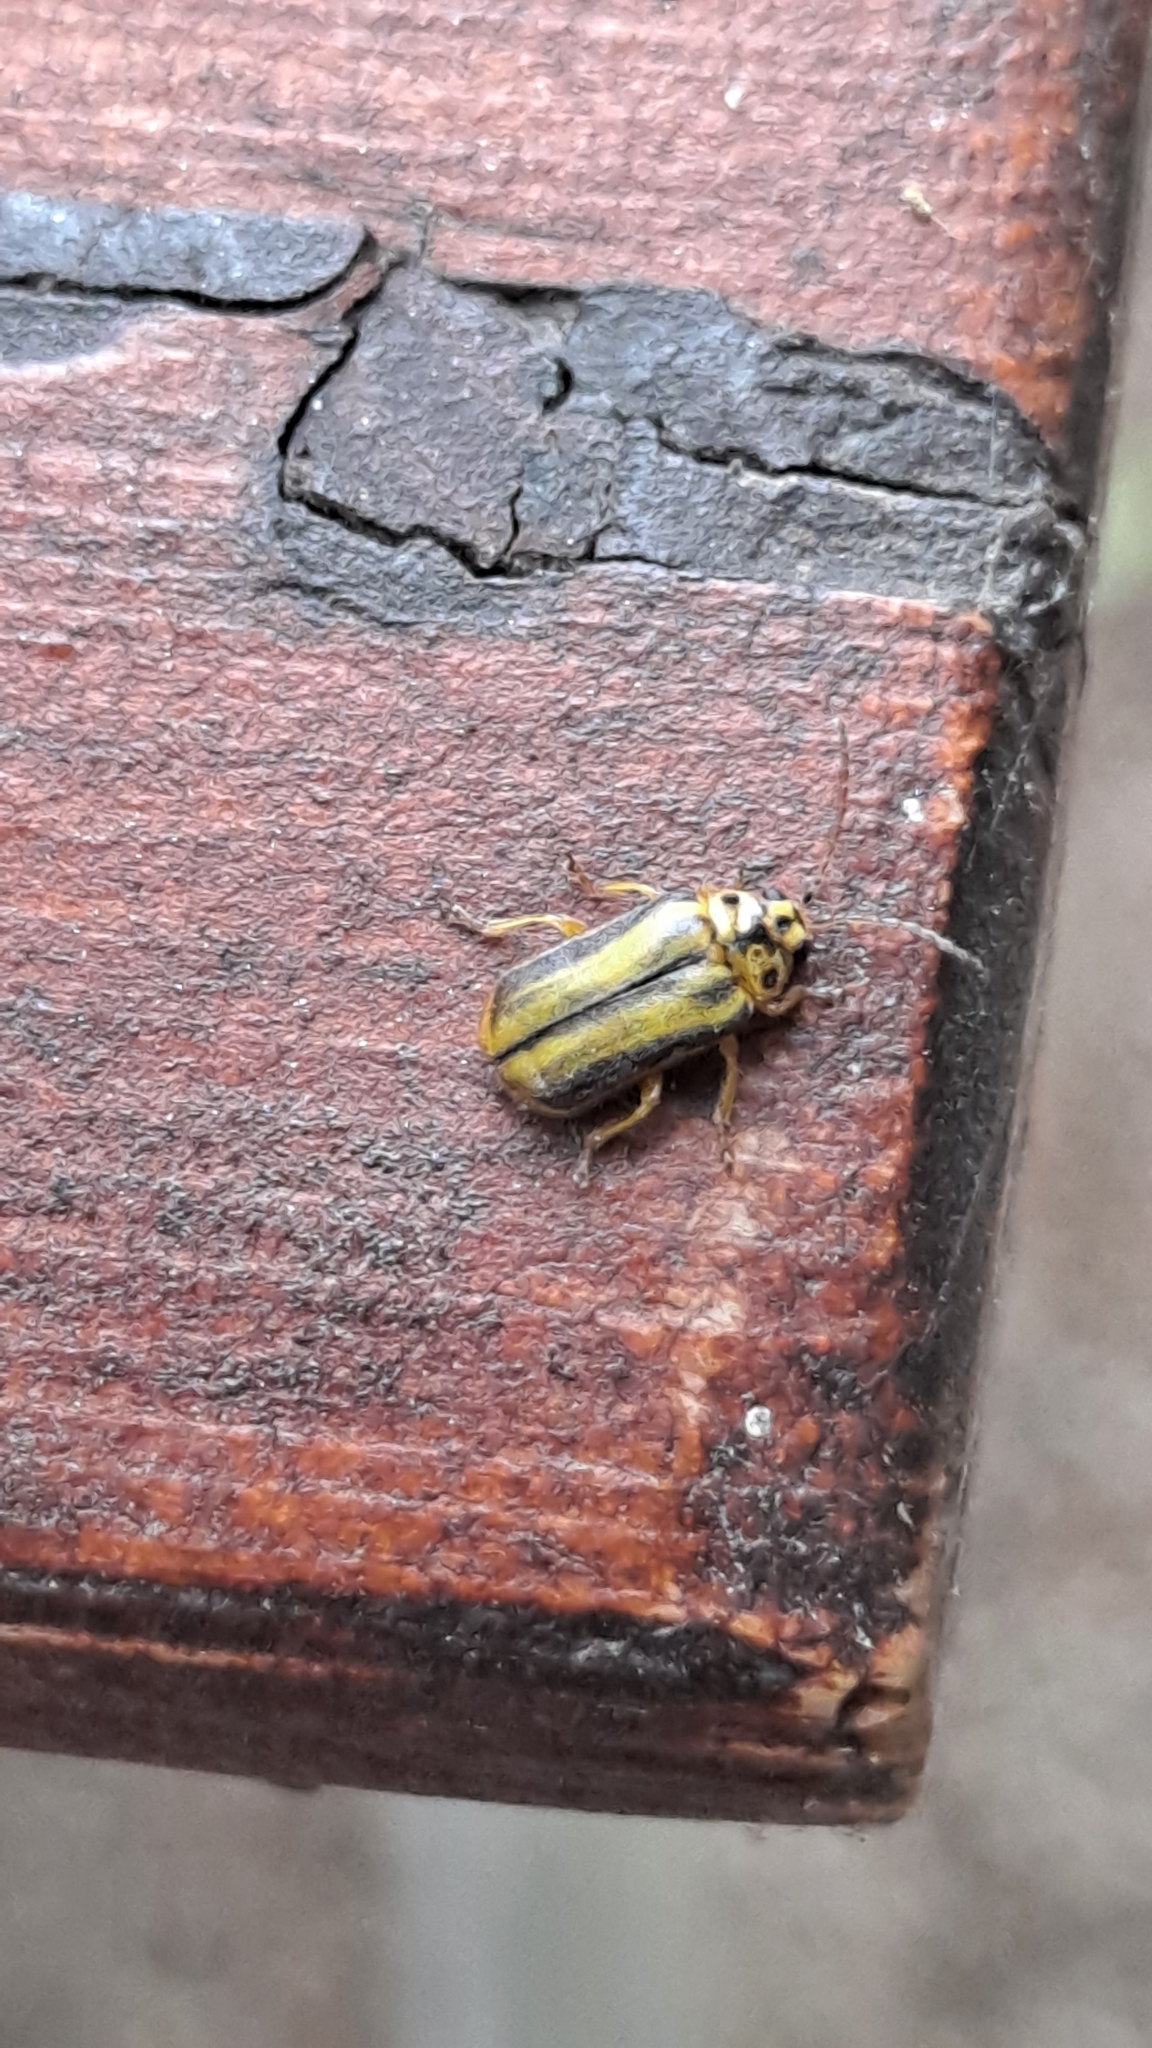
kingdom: Animalia
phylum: Arthropoda
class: Insecta
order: Coleoptera
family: Chrysomelidae
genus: Xanthogaleruca
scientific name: Xanthogaleruca luteola
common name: Elm leaf beetle
